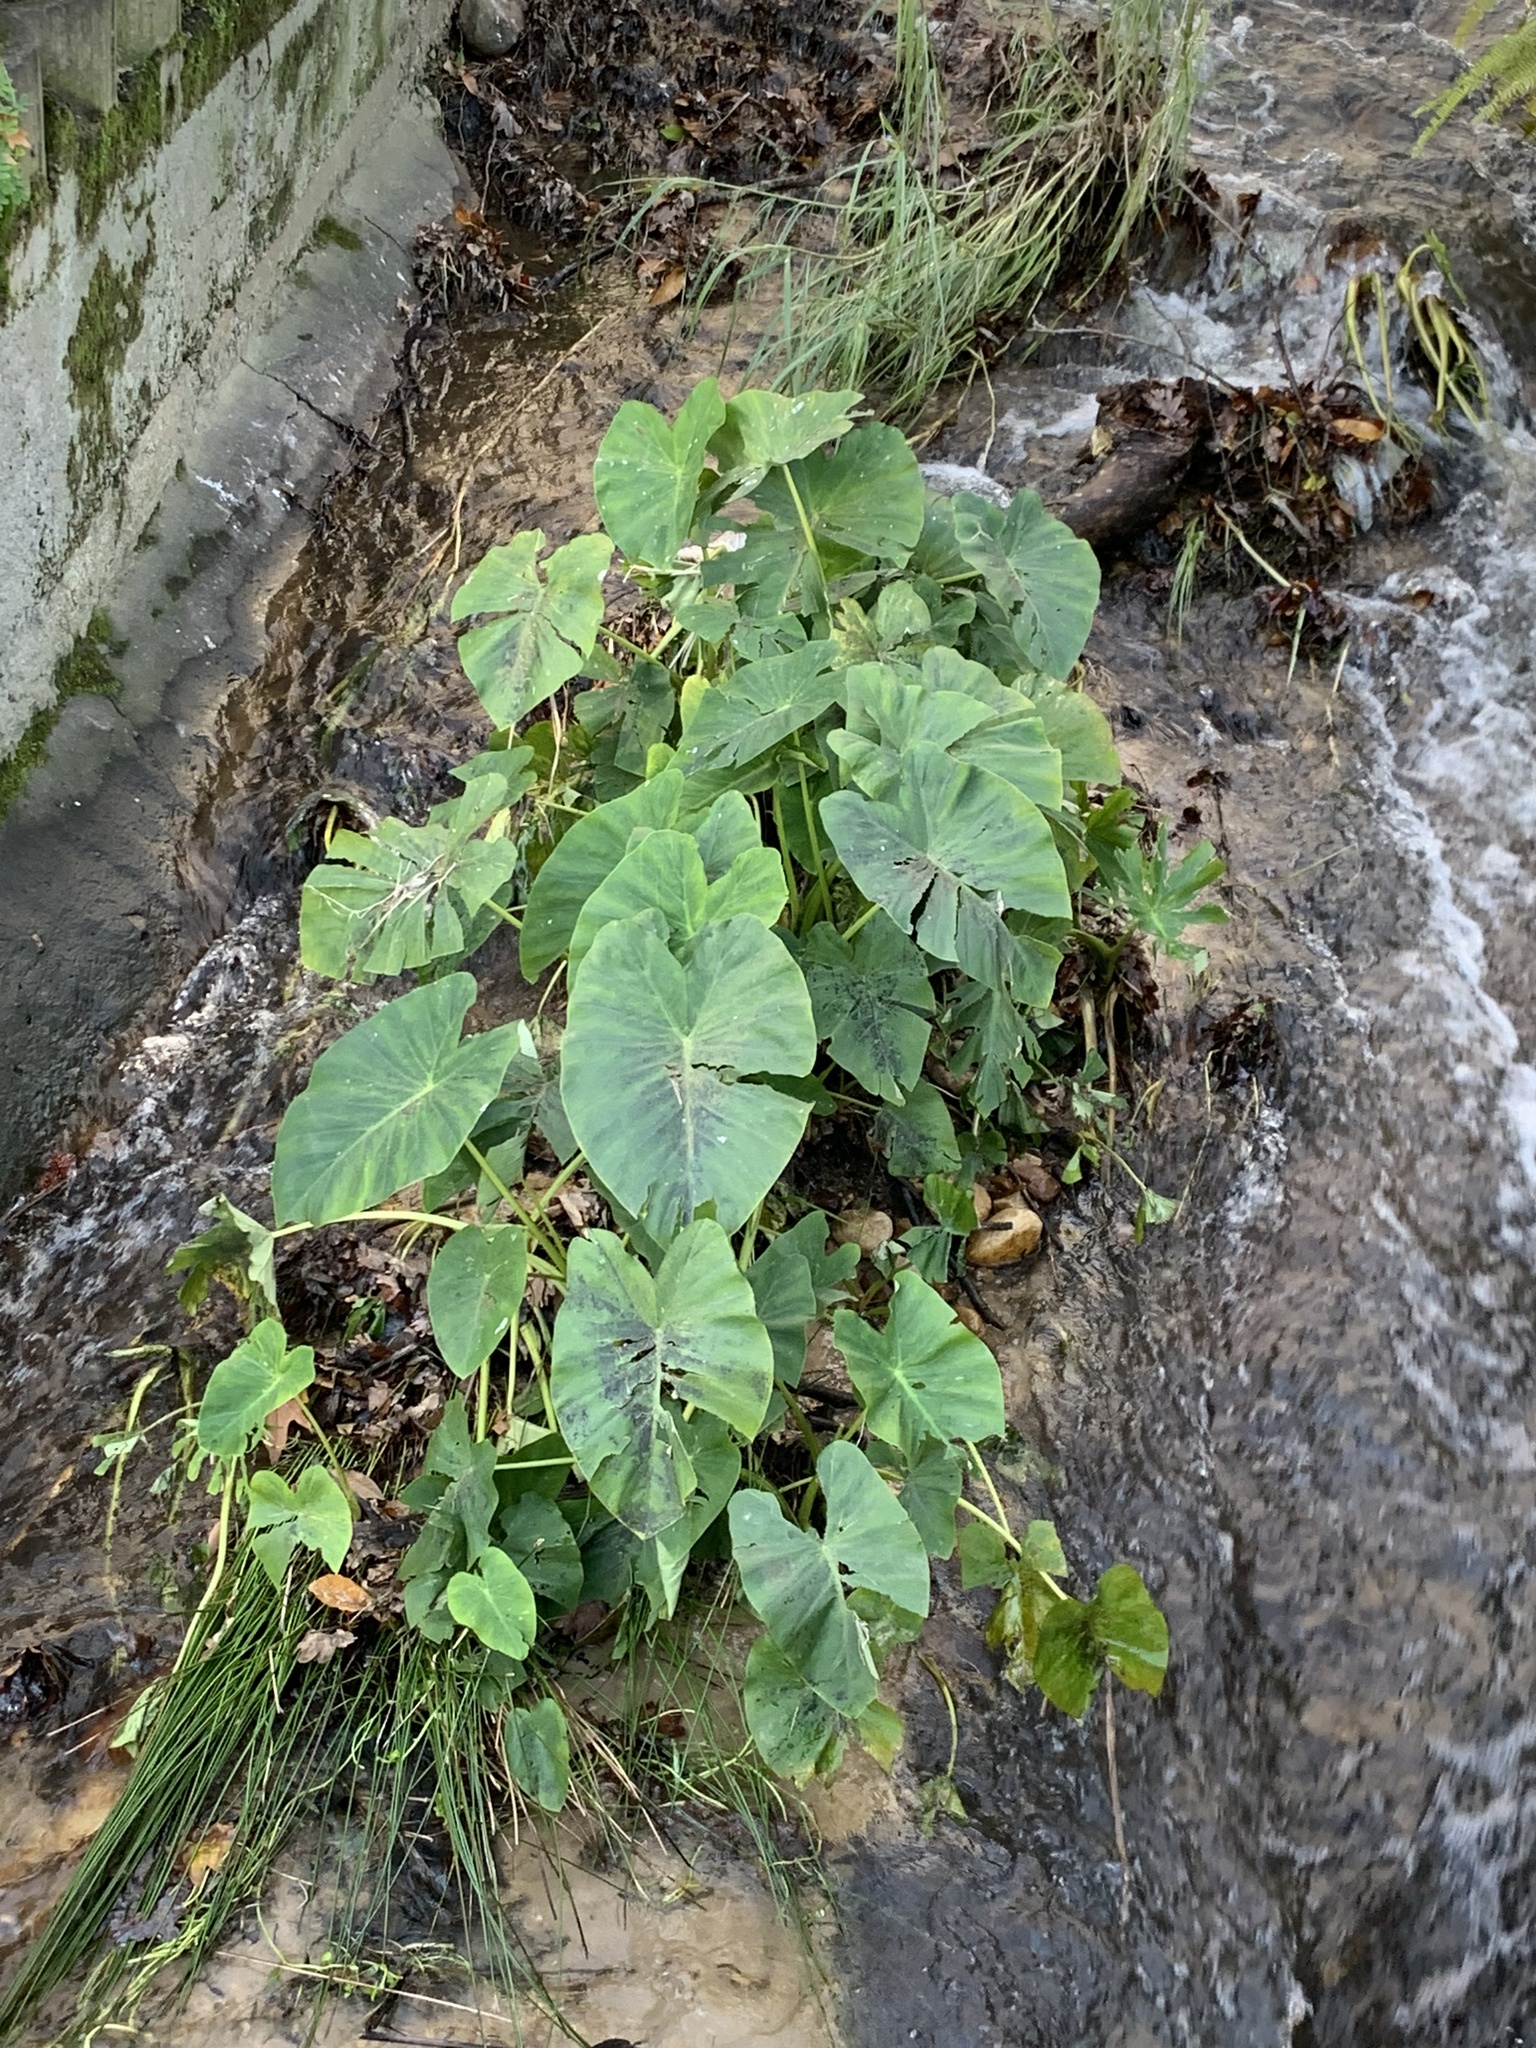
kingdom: Plantae
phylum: Tracheophyta
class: Liliopsida
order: Alismatales
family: Araceae
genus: Colocasia
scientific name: Colocasia esculenta
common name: Taro
